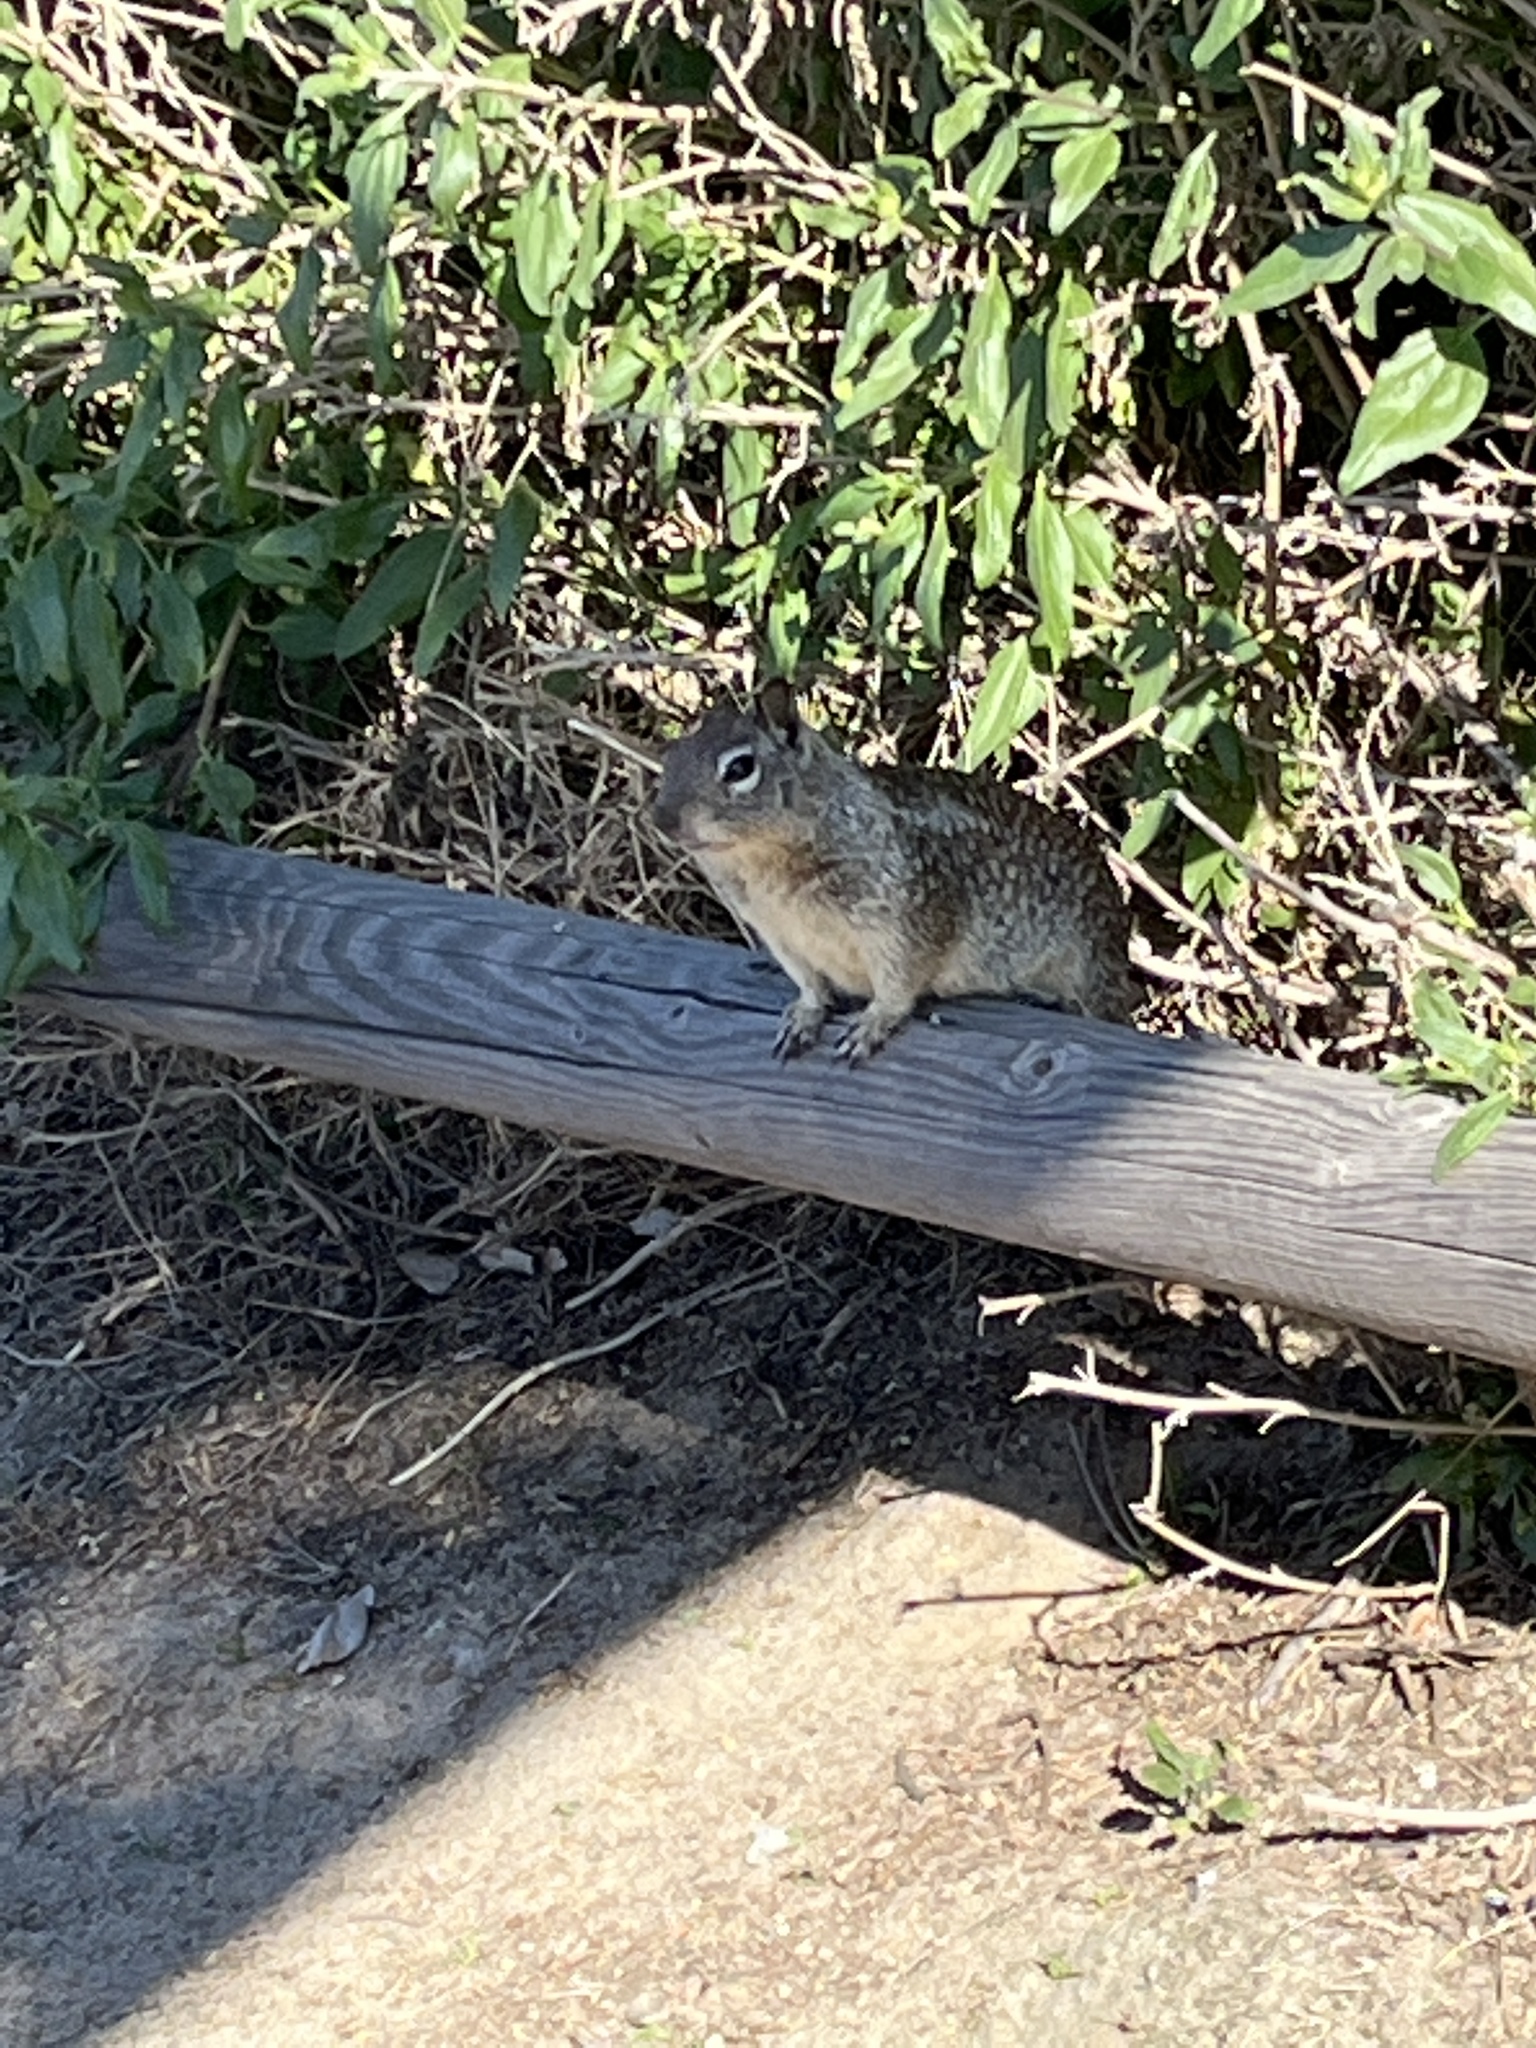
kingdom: Animalia
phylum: Chordata
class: Mammalia
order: Rodentia
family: Sciuridae
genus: Otospermophilus
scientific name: Otospermophilus beecheyi
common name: California ground squirrel
